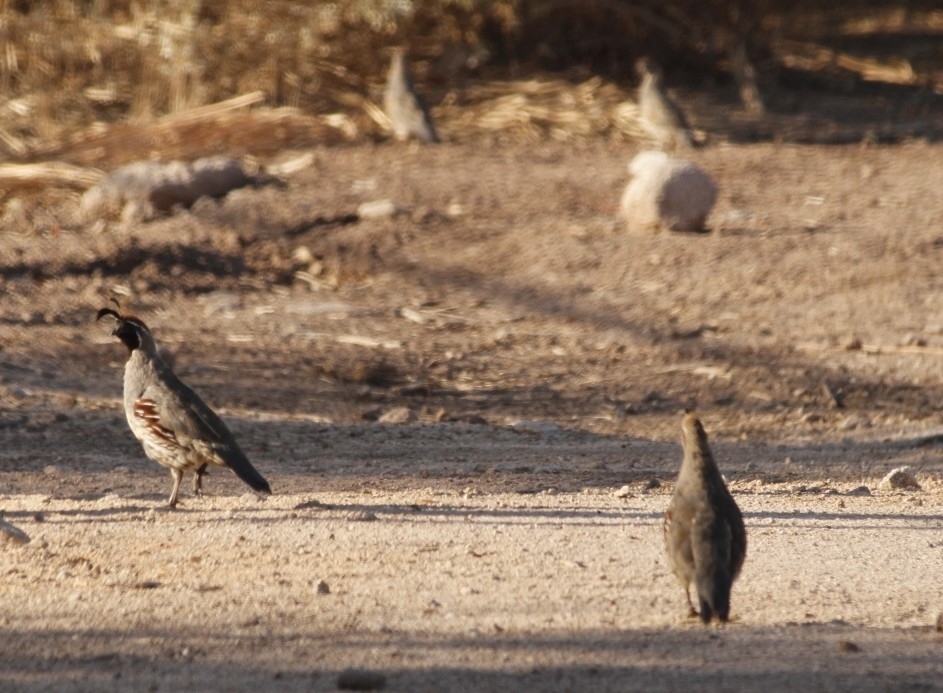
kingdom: Animalia
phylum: Chordata
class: Aves
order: Galliformes
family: Odontophoridae
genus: Callipepla
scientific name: Callipepla gambelii
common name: Gambel's quail
